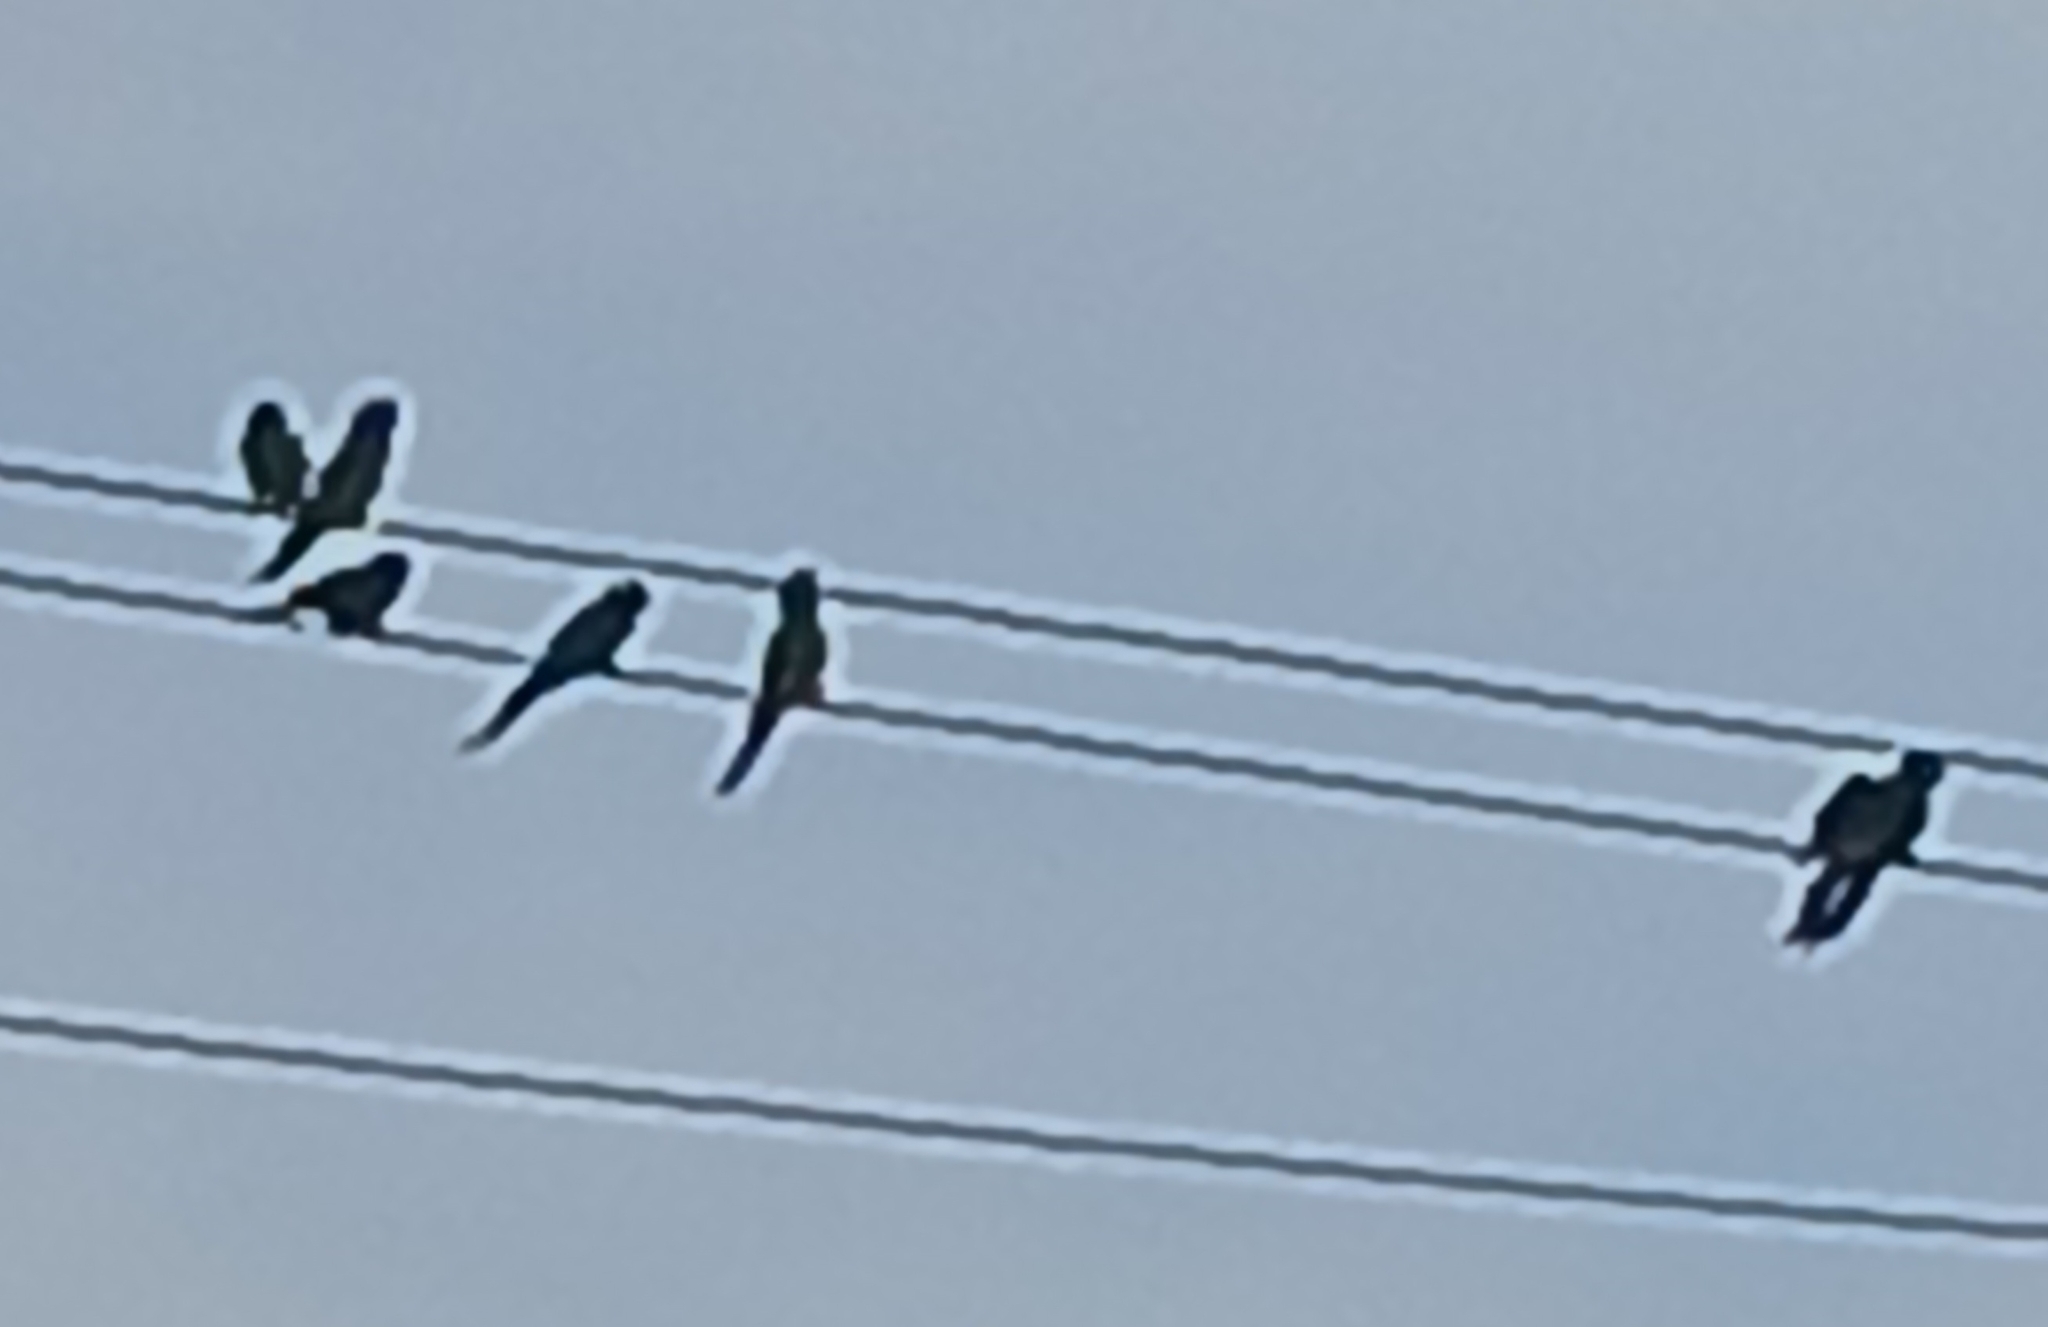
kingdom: Animalia
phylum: Chordata
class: Aves
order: Psittaciformes
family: Psittacidae
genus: Myiopsitta
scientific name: Myiopsitta monachus
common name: Monk parakeet
